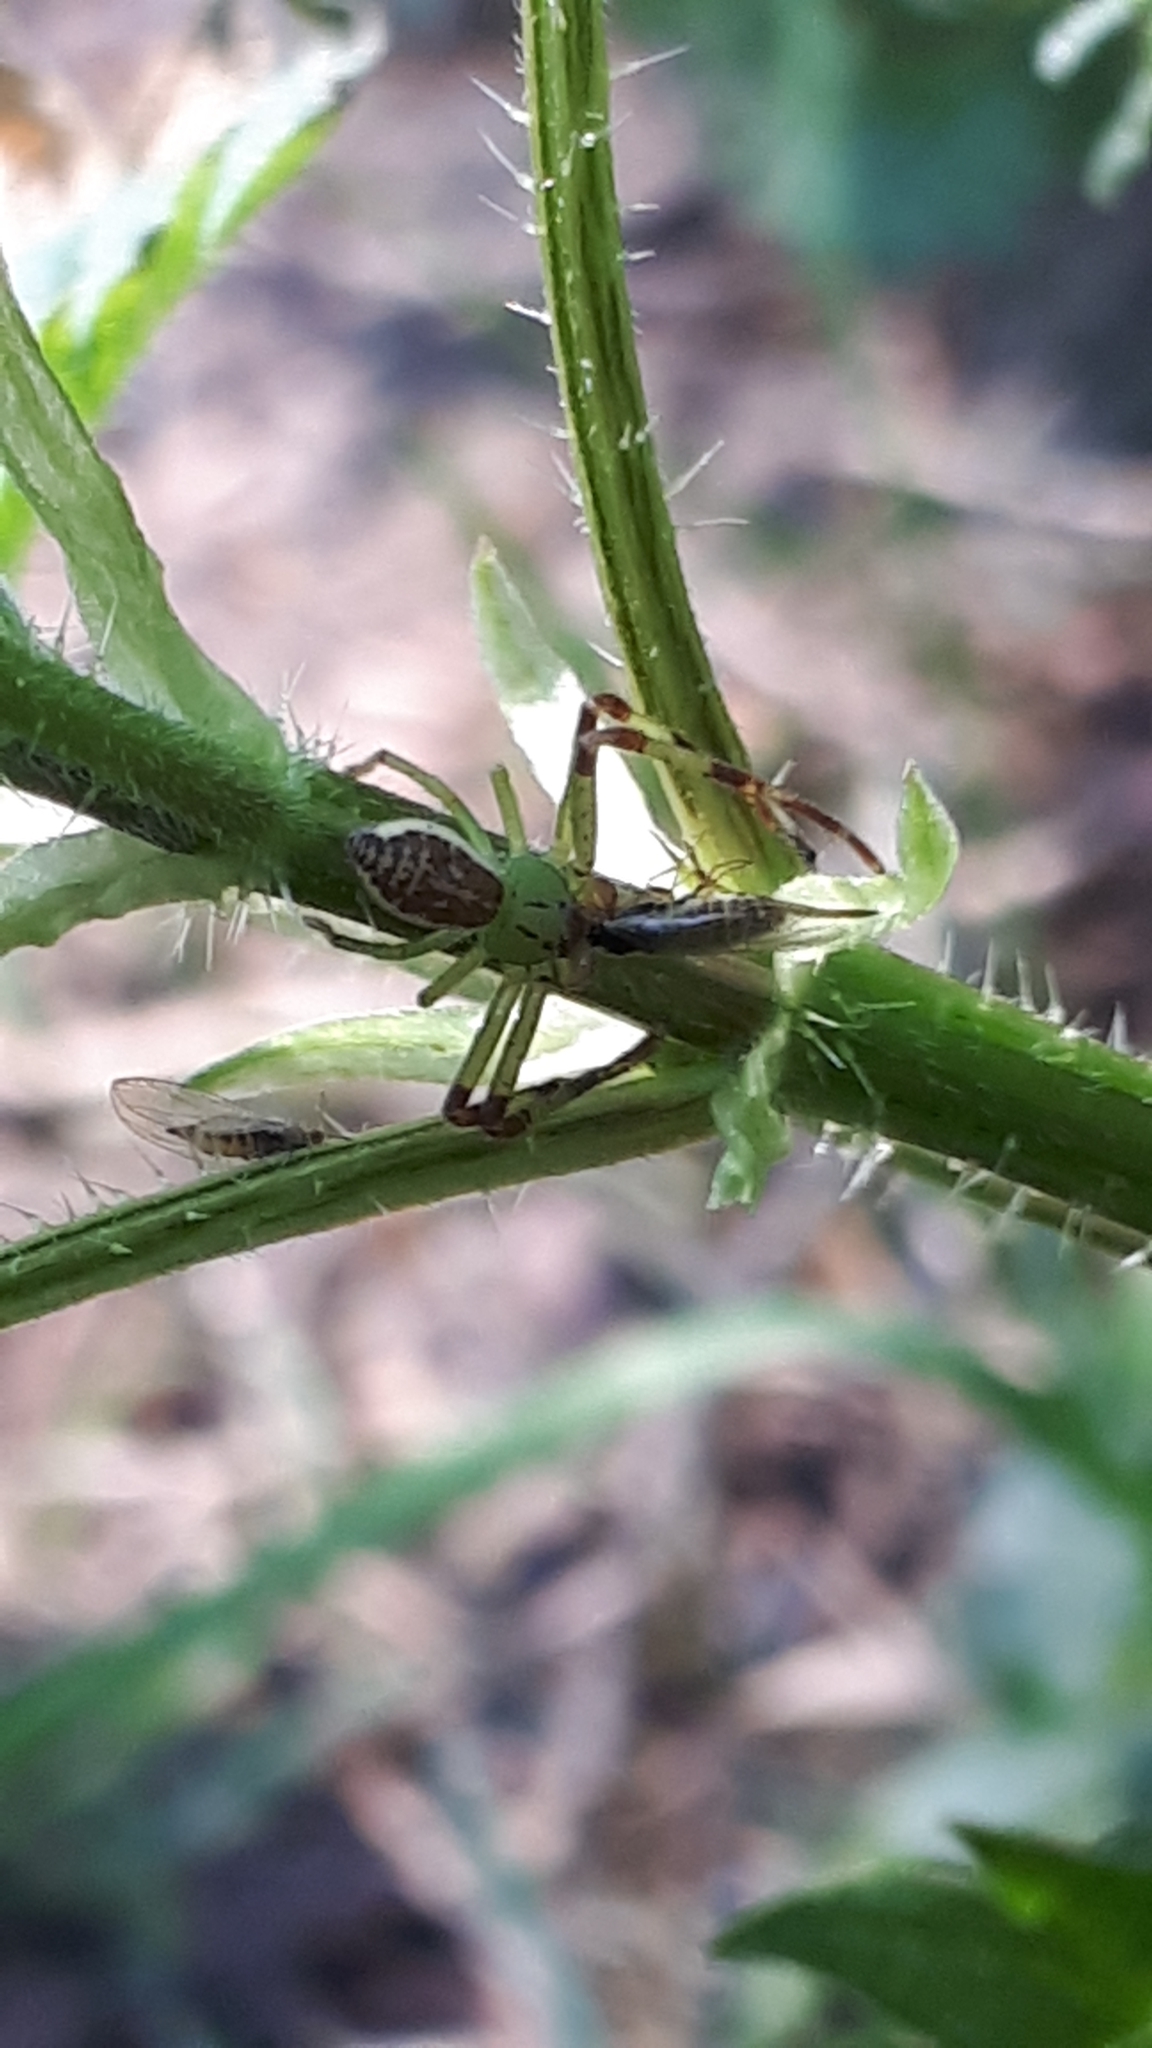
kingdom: Animalia
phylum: Arthropoda
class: Arachnida
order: Araneae
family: Thomisidae
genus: Diaea
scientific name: Diaea dorsata
